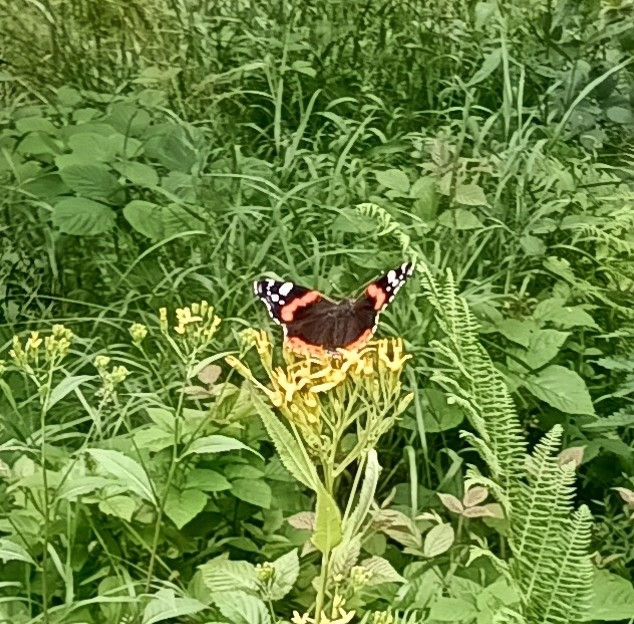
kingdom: Animalia
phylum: Arthropoda
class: Insecta
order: Lepidoptera
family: Nymphalidae
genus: Vanessa
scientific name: Vanessa atalanta
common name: Red admiral
